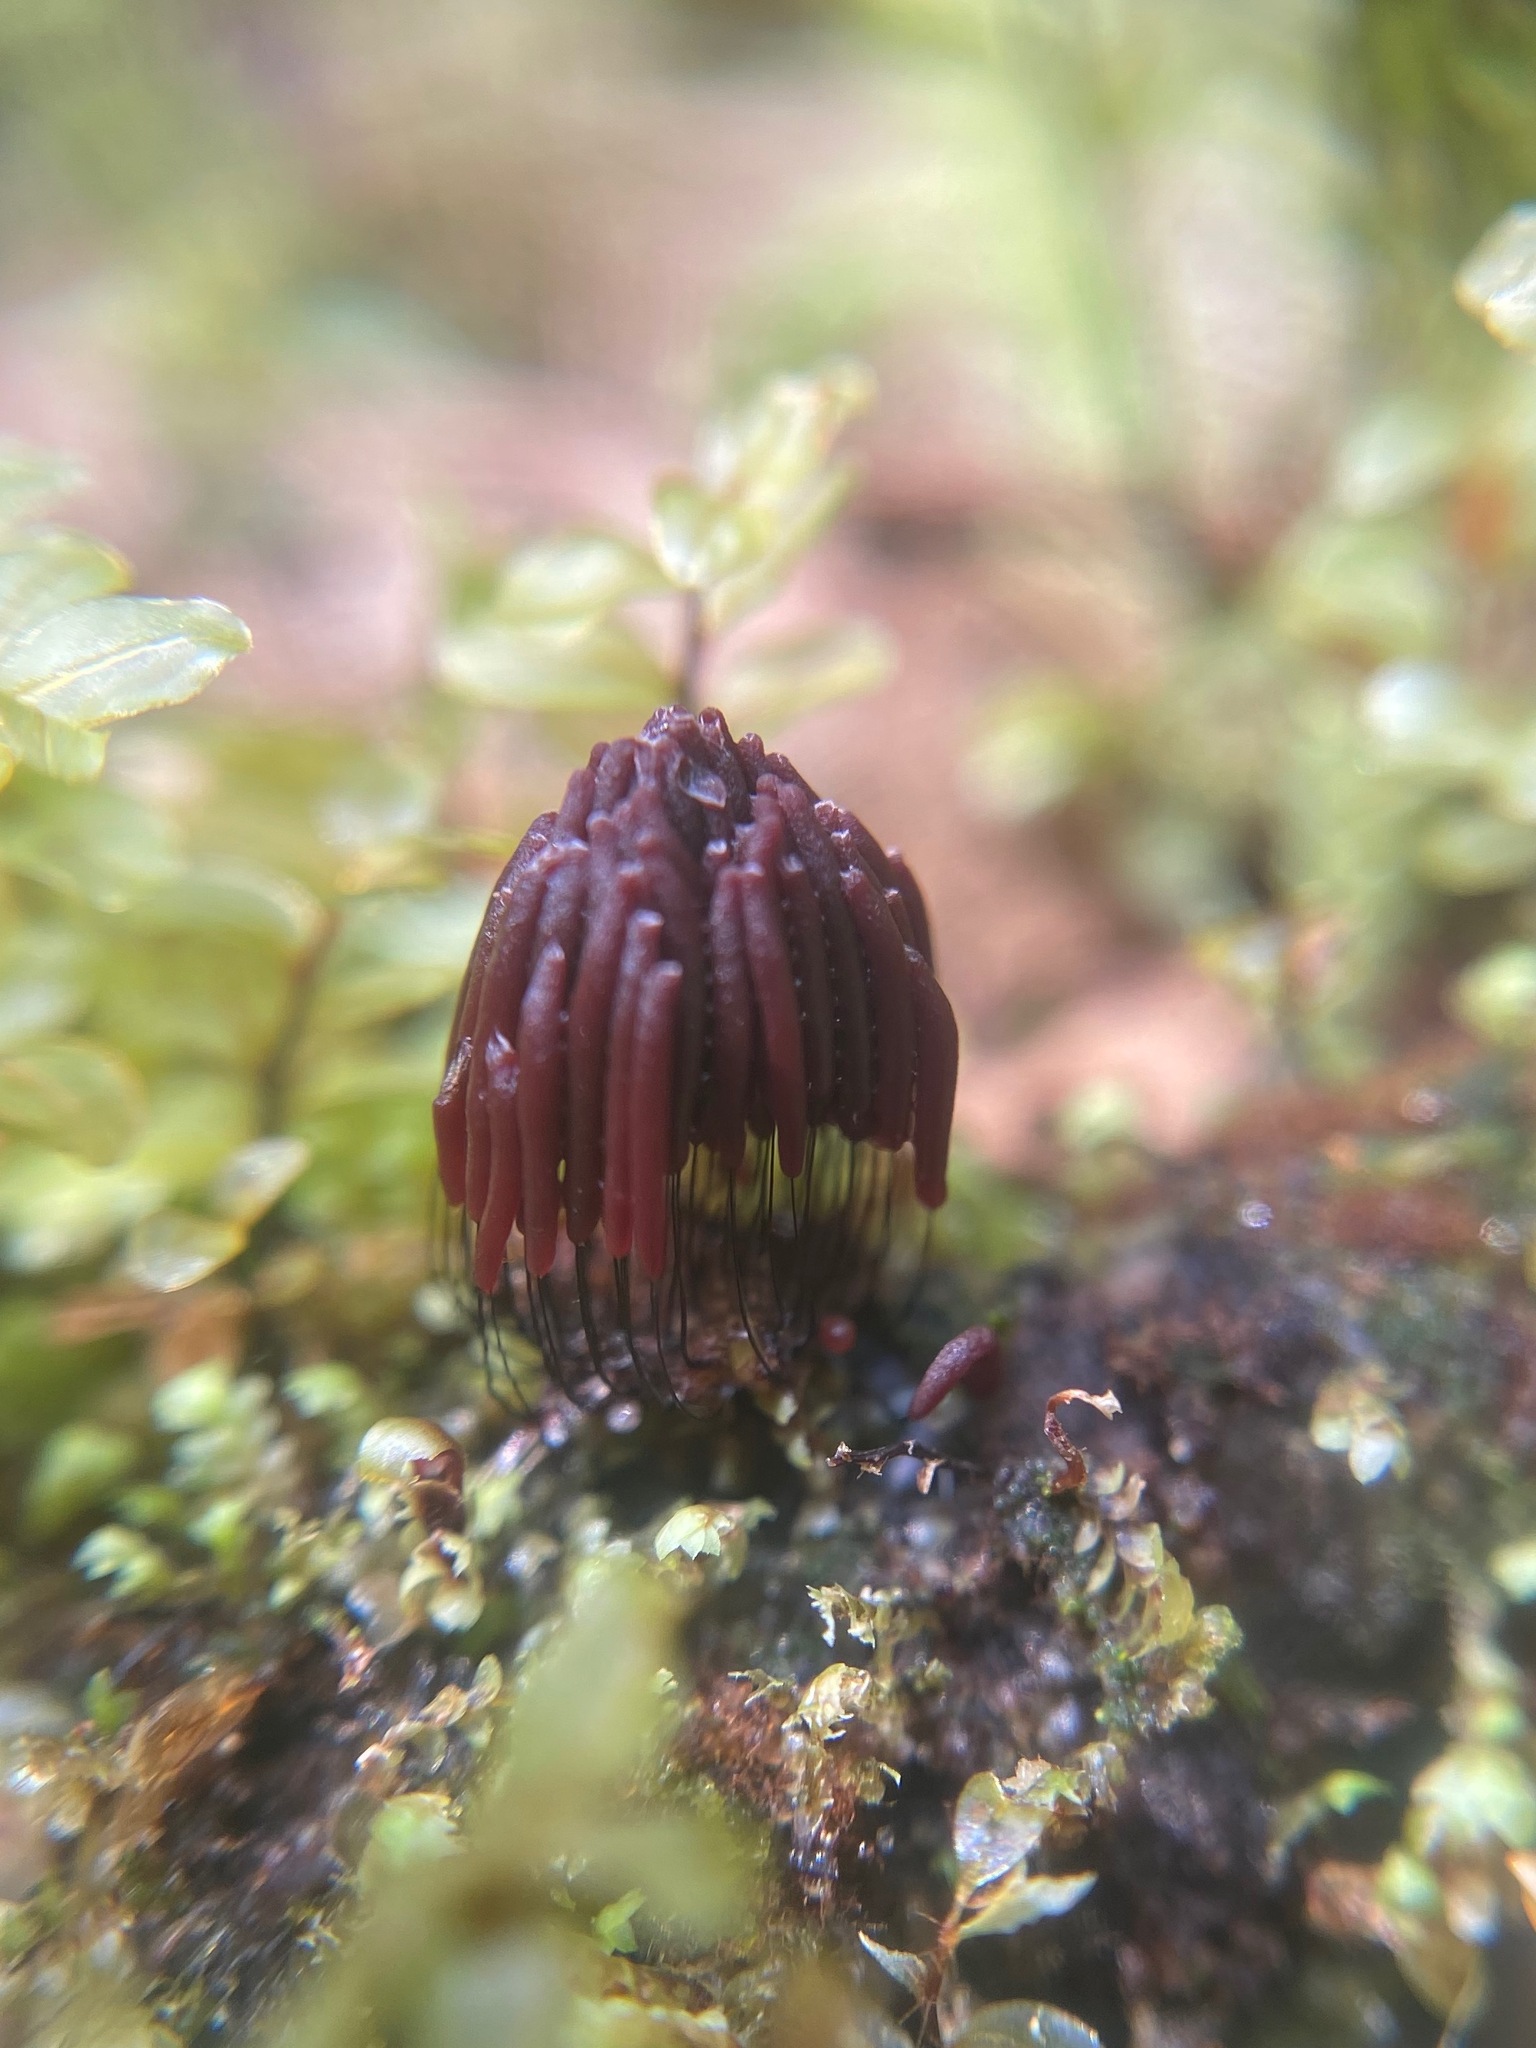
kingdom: Protozoa
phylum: Mycetozoa
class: Myxomycetes
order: Stemonitidales
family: Stemonitidaceae
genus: Stemonitis
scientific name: Stemonitis splendens
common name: Chocolate tube slime
